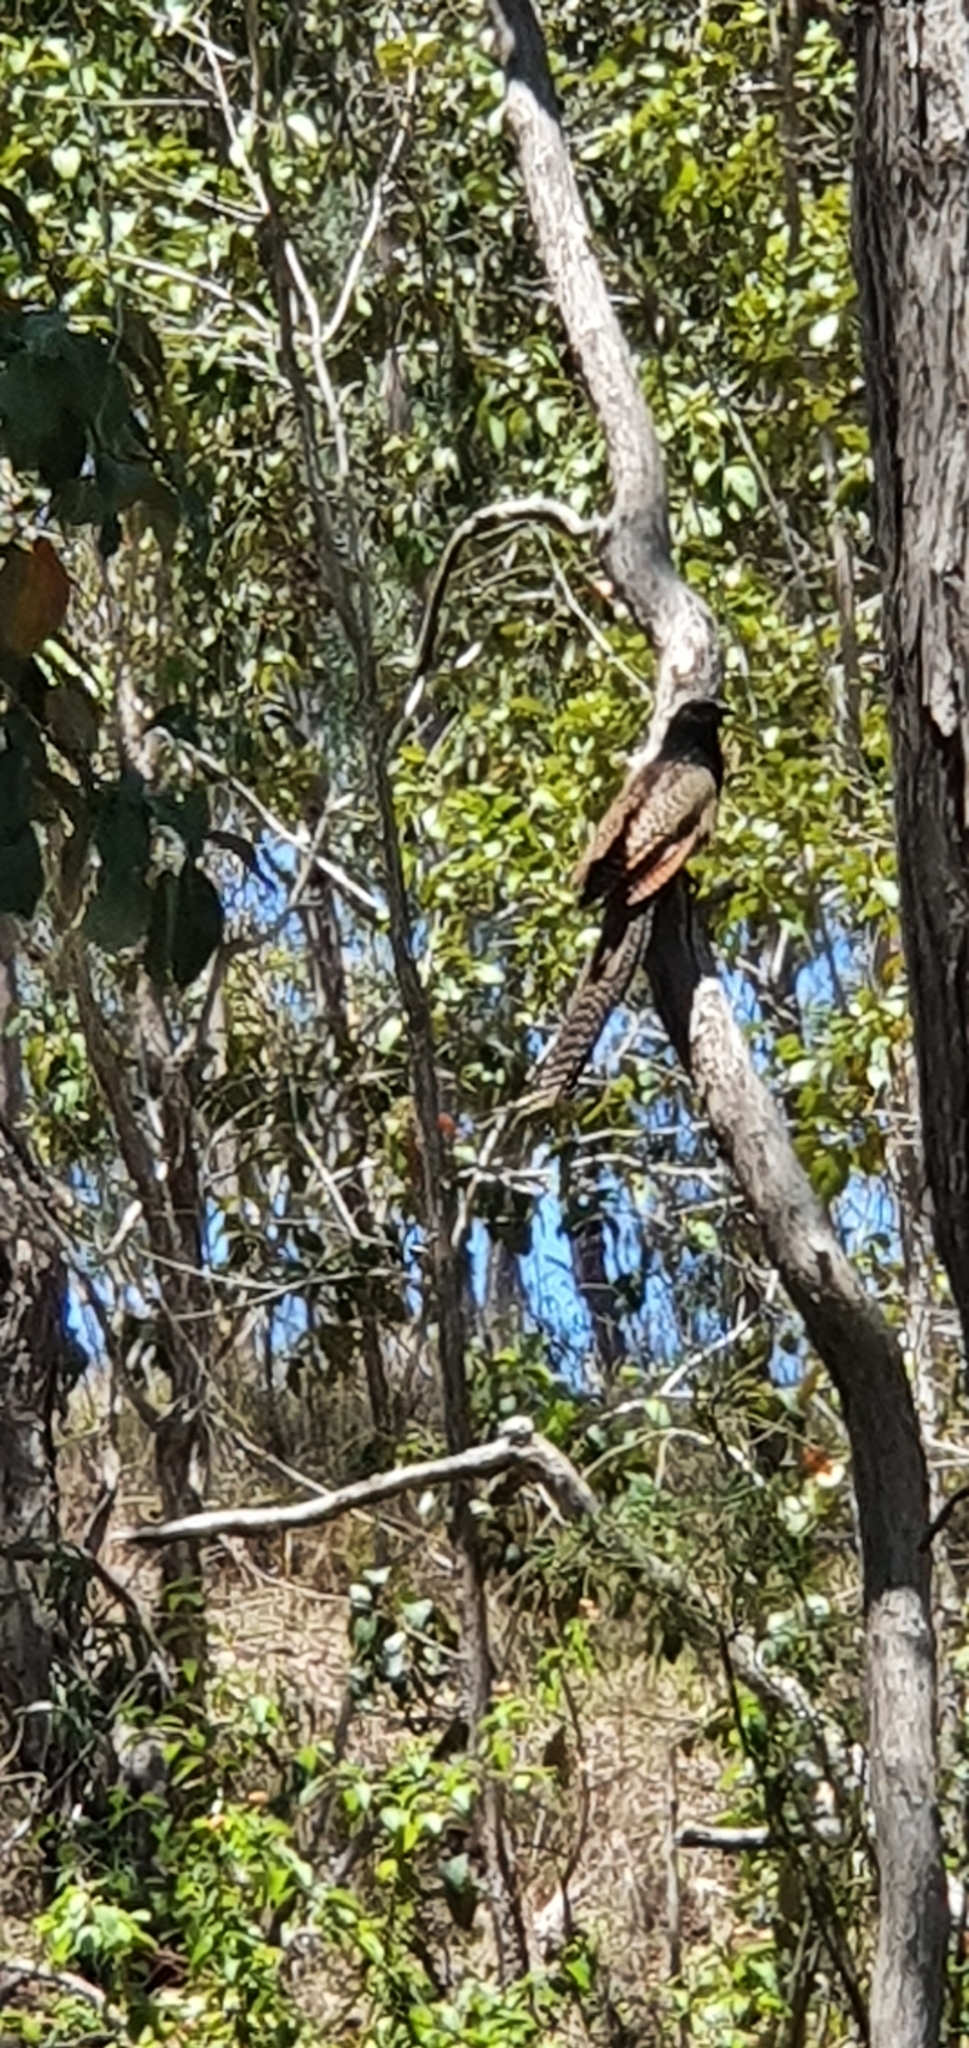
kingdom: Animalia
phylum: Chordata
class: Aves
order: Cuculiformes
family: Cuculidae
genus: Centropus
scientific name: Centropus phasianinus
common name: Pheasant coucal
